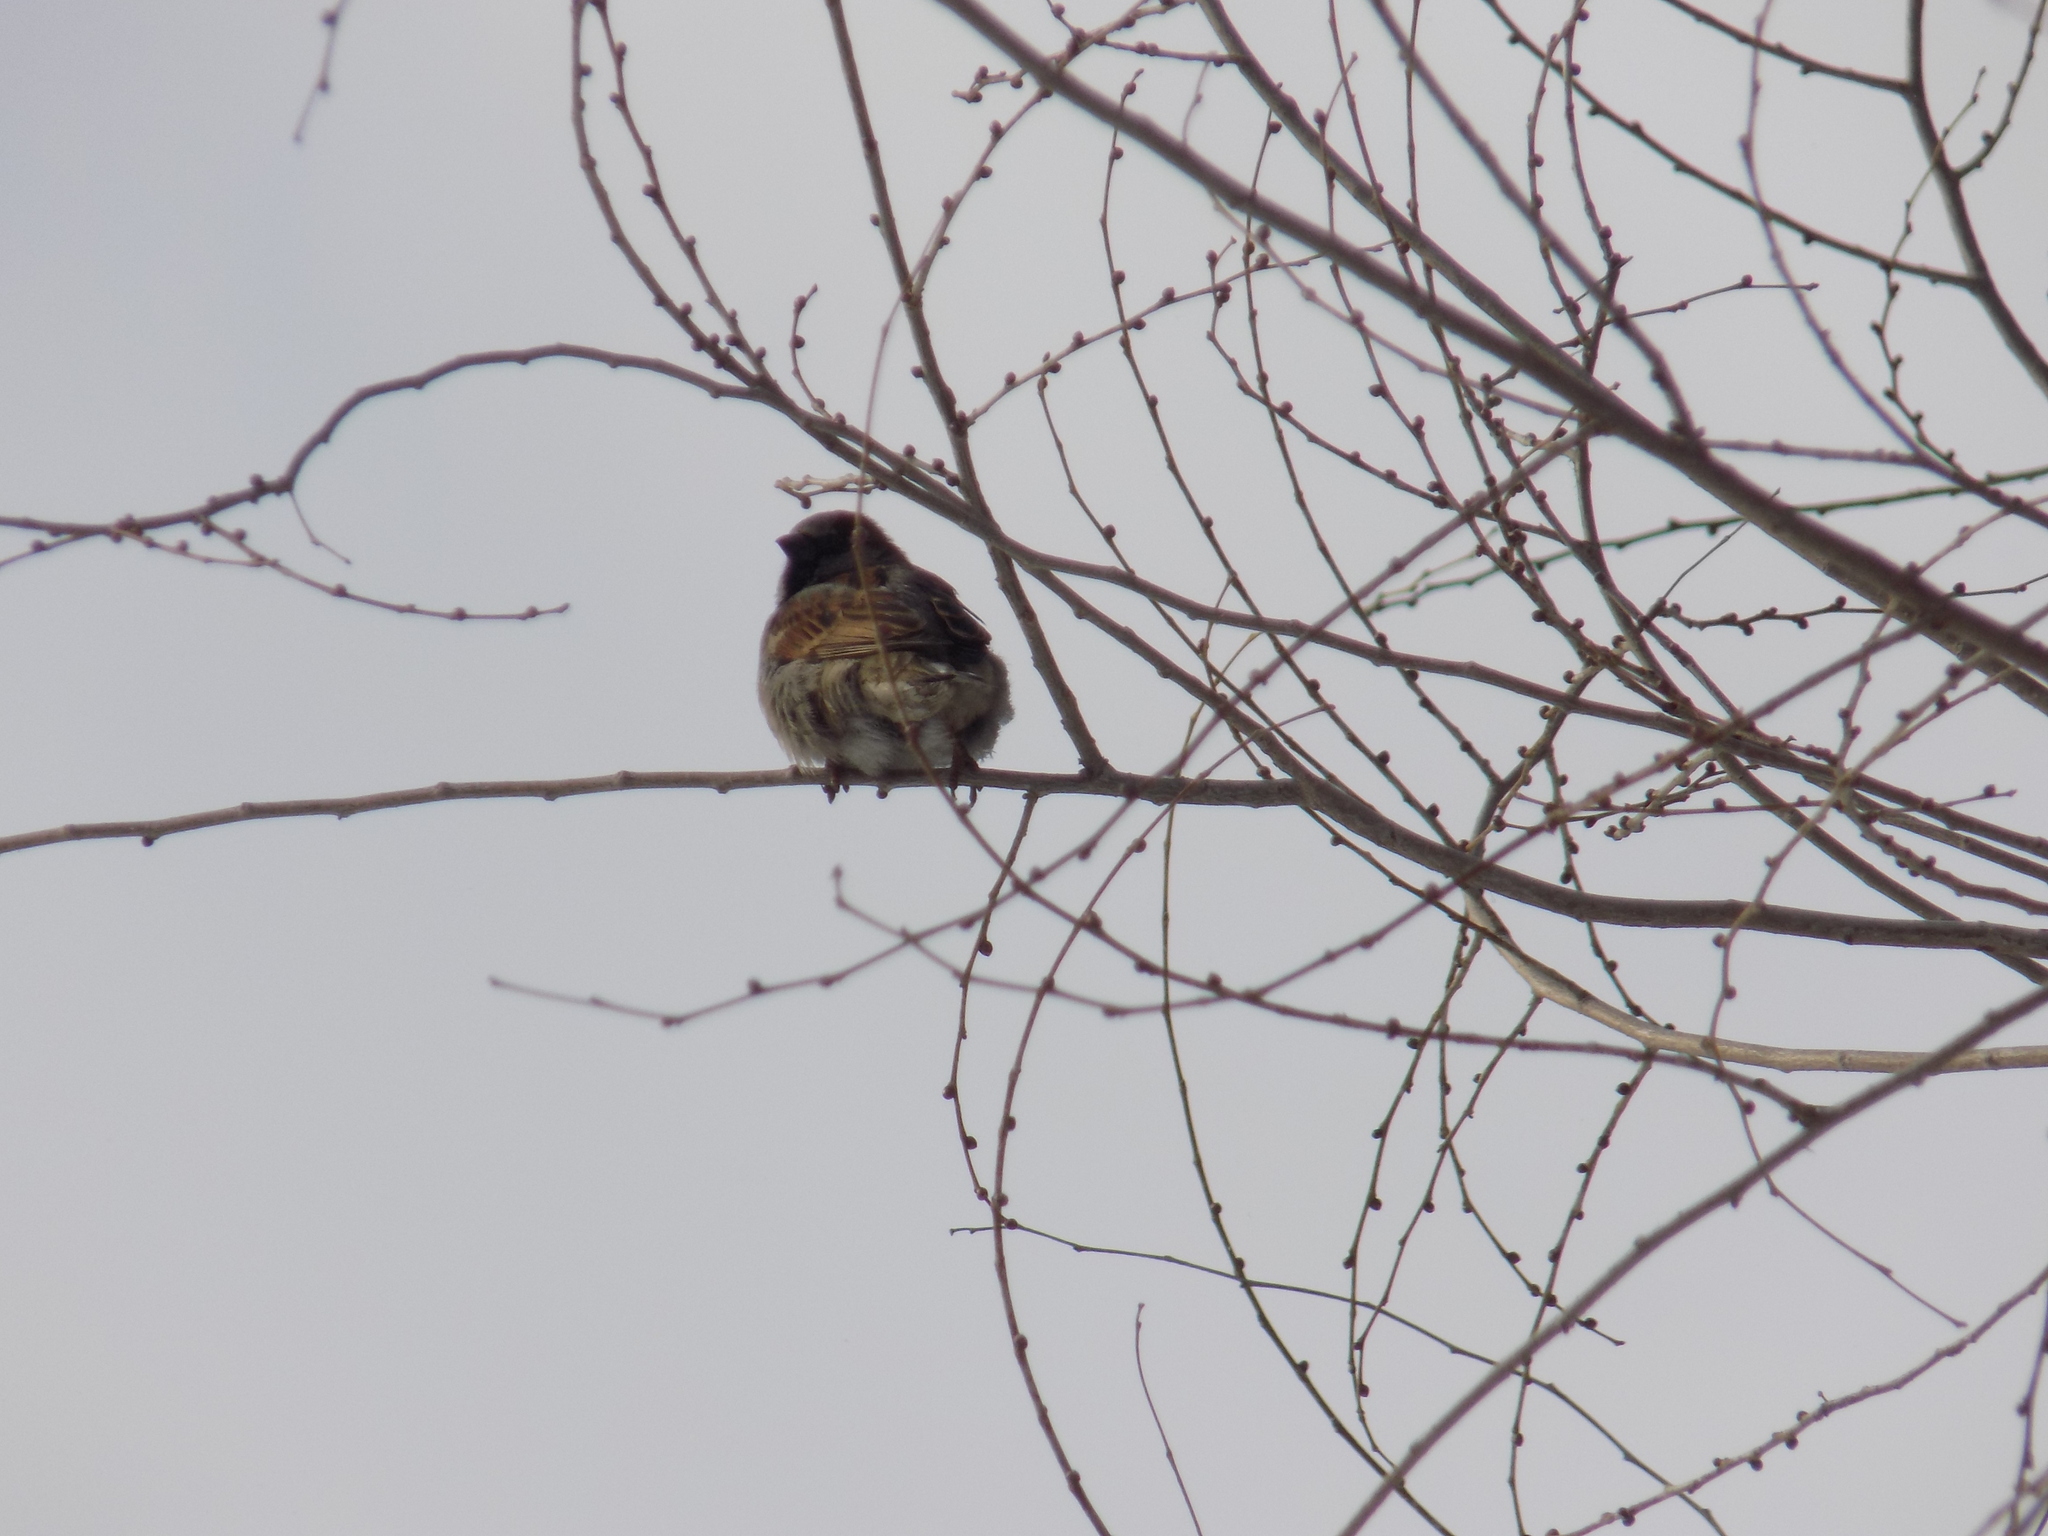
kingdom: Animalia
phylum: Chordata
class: Aves
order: Passeriformes
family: Passeridae
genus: Passer
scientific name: Passer domesticus
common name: House sparrow
